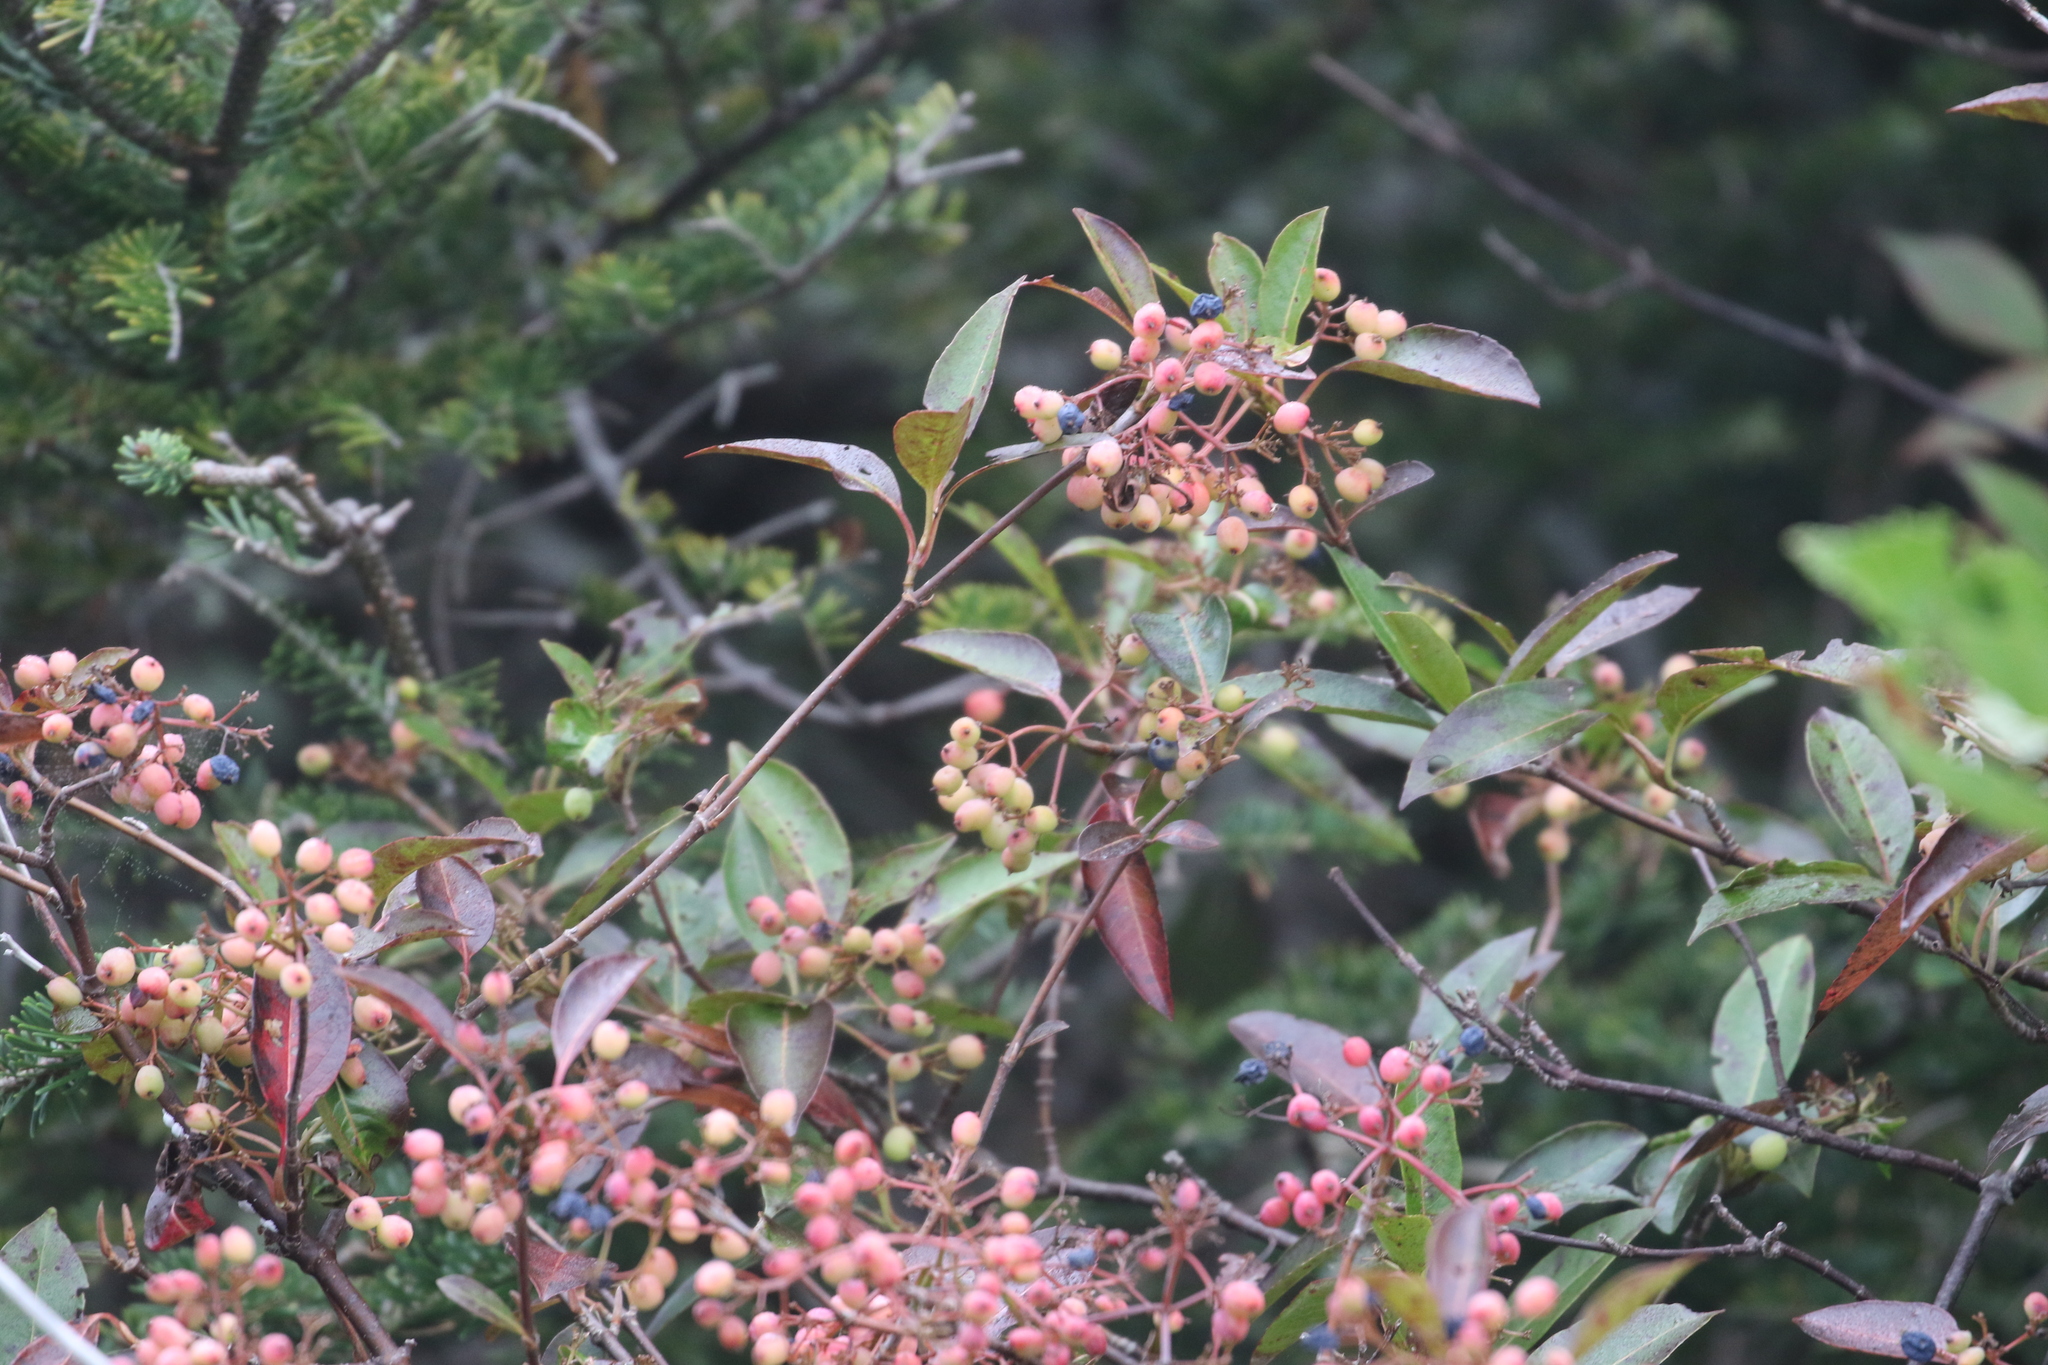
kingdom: Plantae
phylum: Tracheophyta
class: Magnoliopsida
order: Dipsacales
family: Viburnaceae
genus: Viburnum
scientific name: Viburnum cassinoides
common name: Swamp haw
